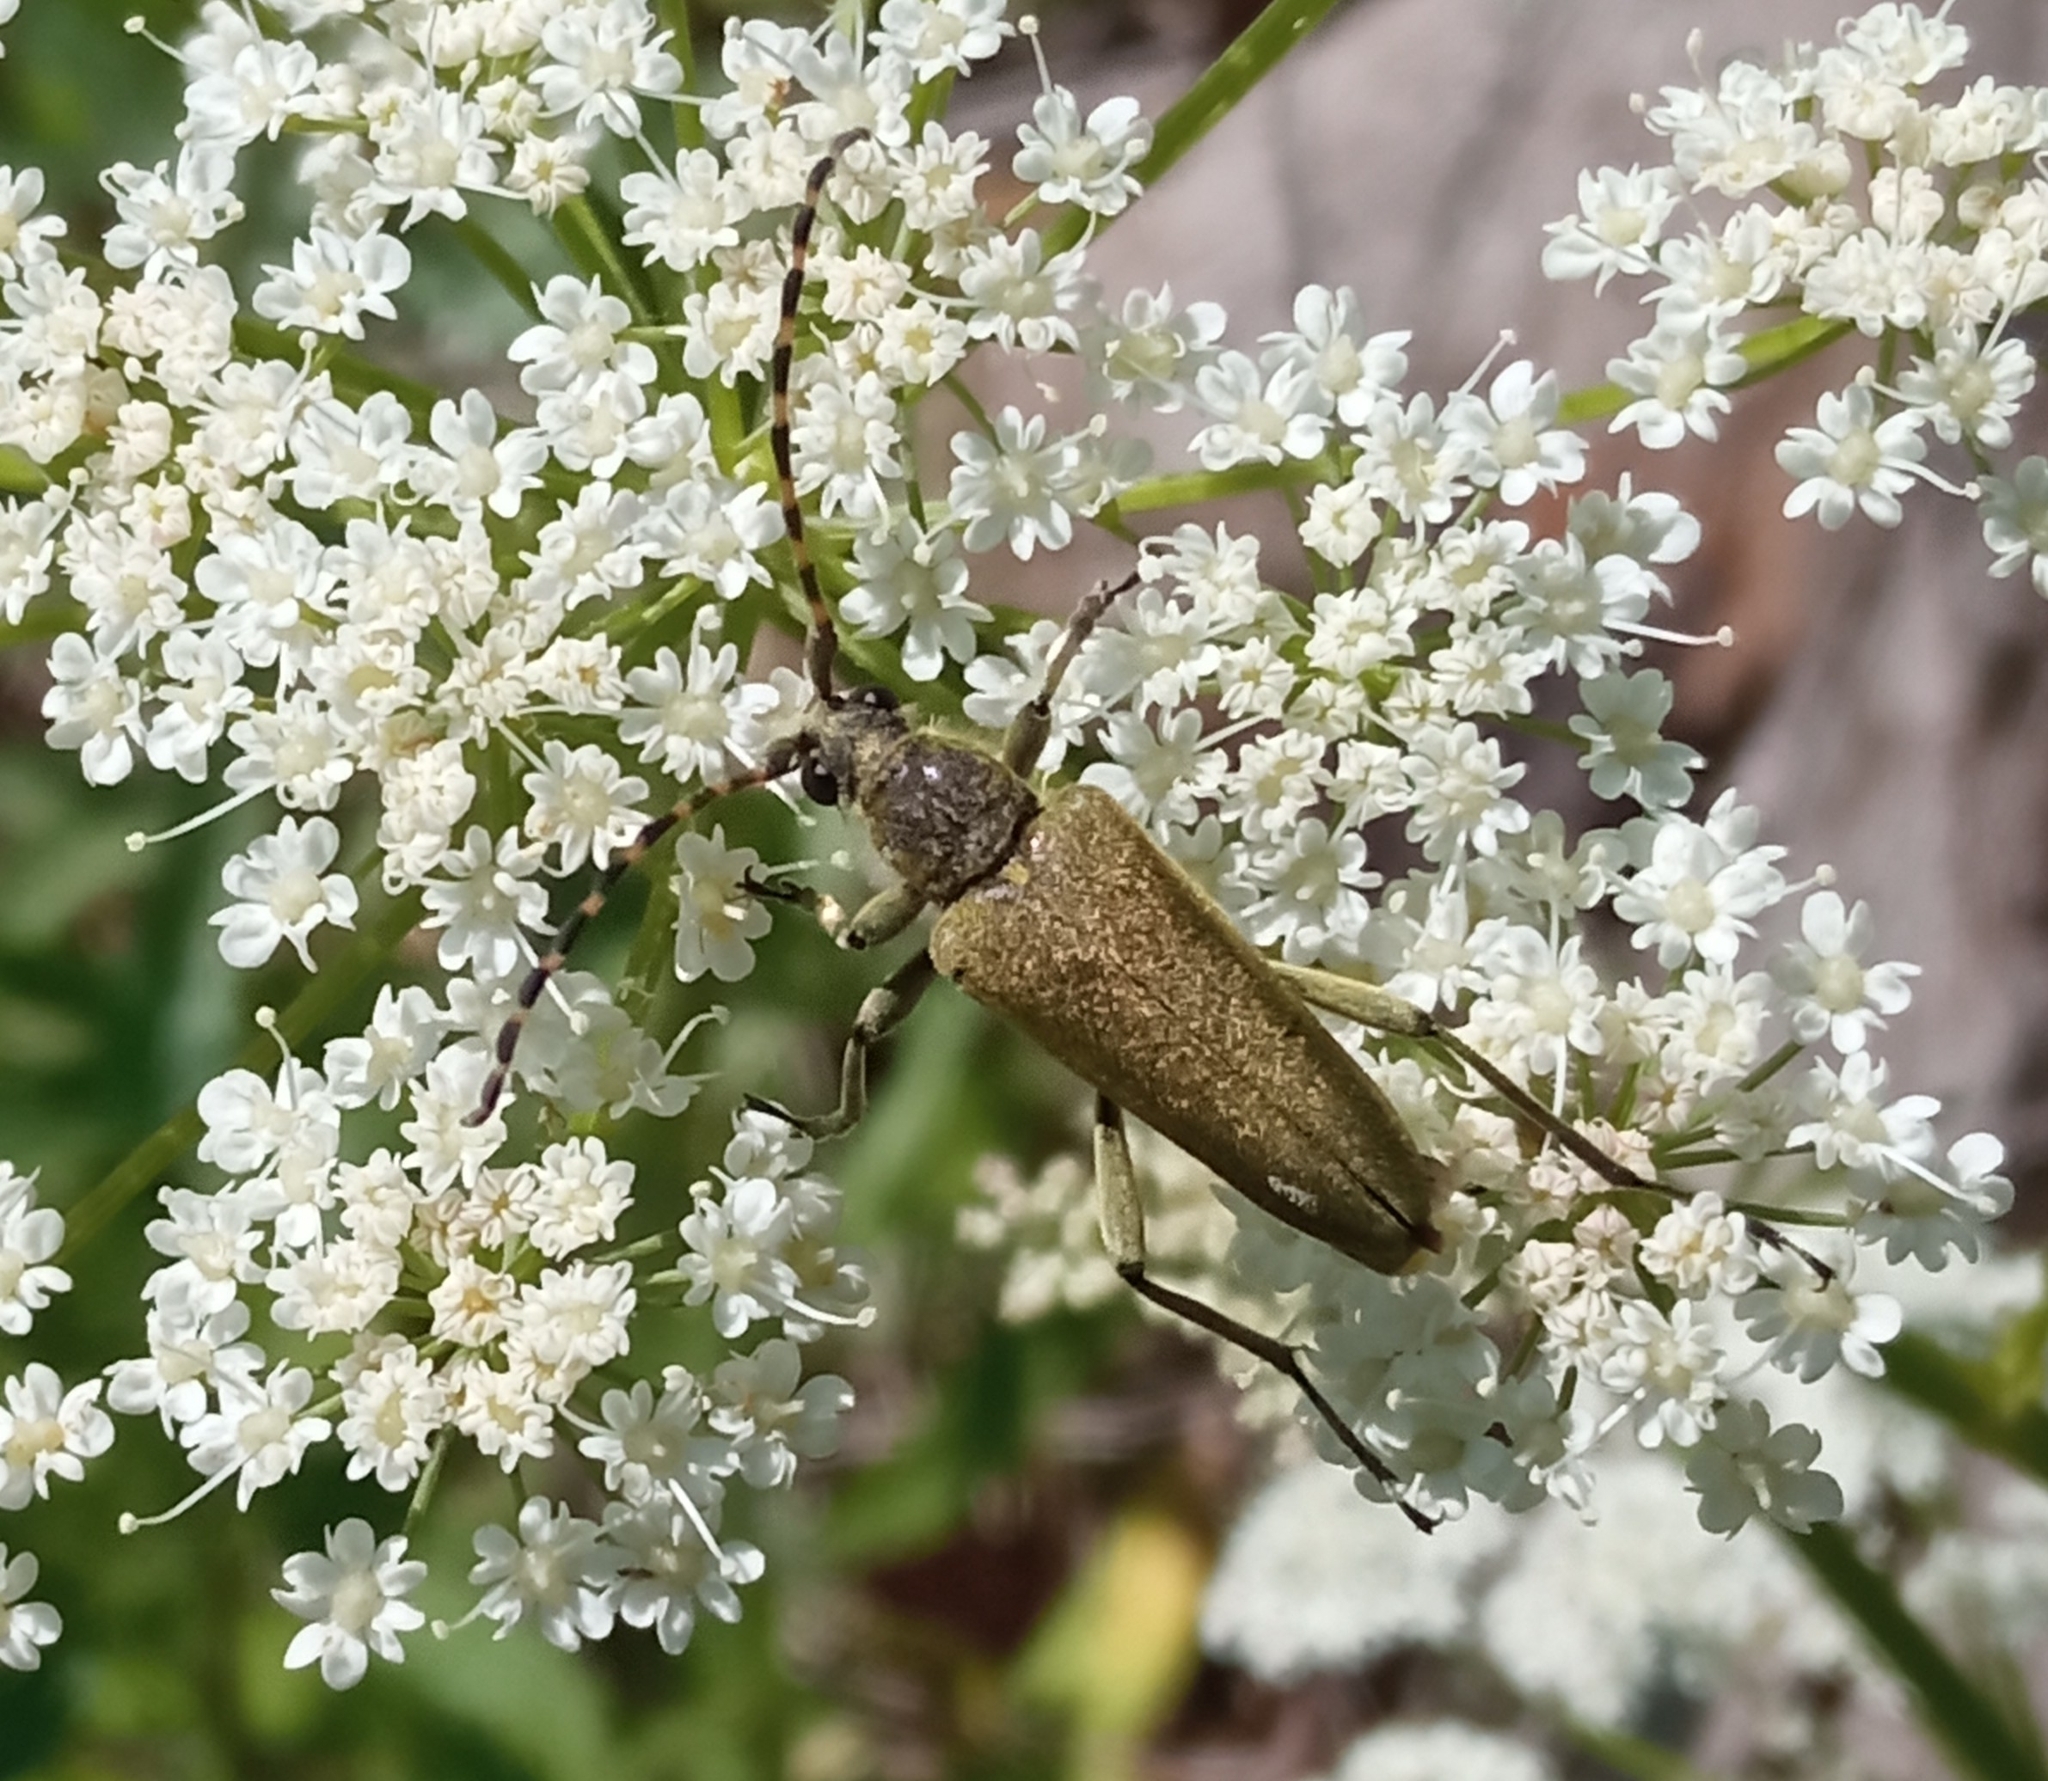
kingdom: Animalia
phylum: Arthropoda
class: Insecta
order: Coleoptera
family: Cerambycidae
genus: Lepturobosca
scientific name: Lepturobosca virens
